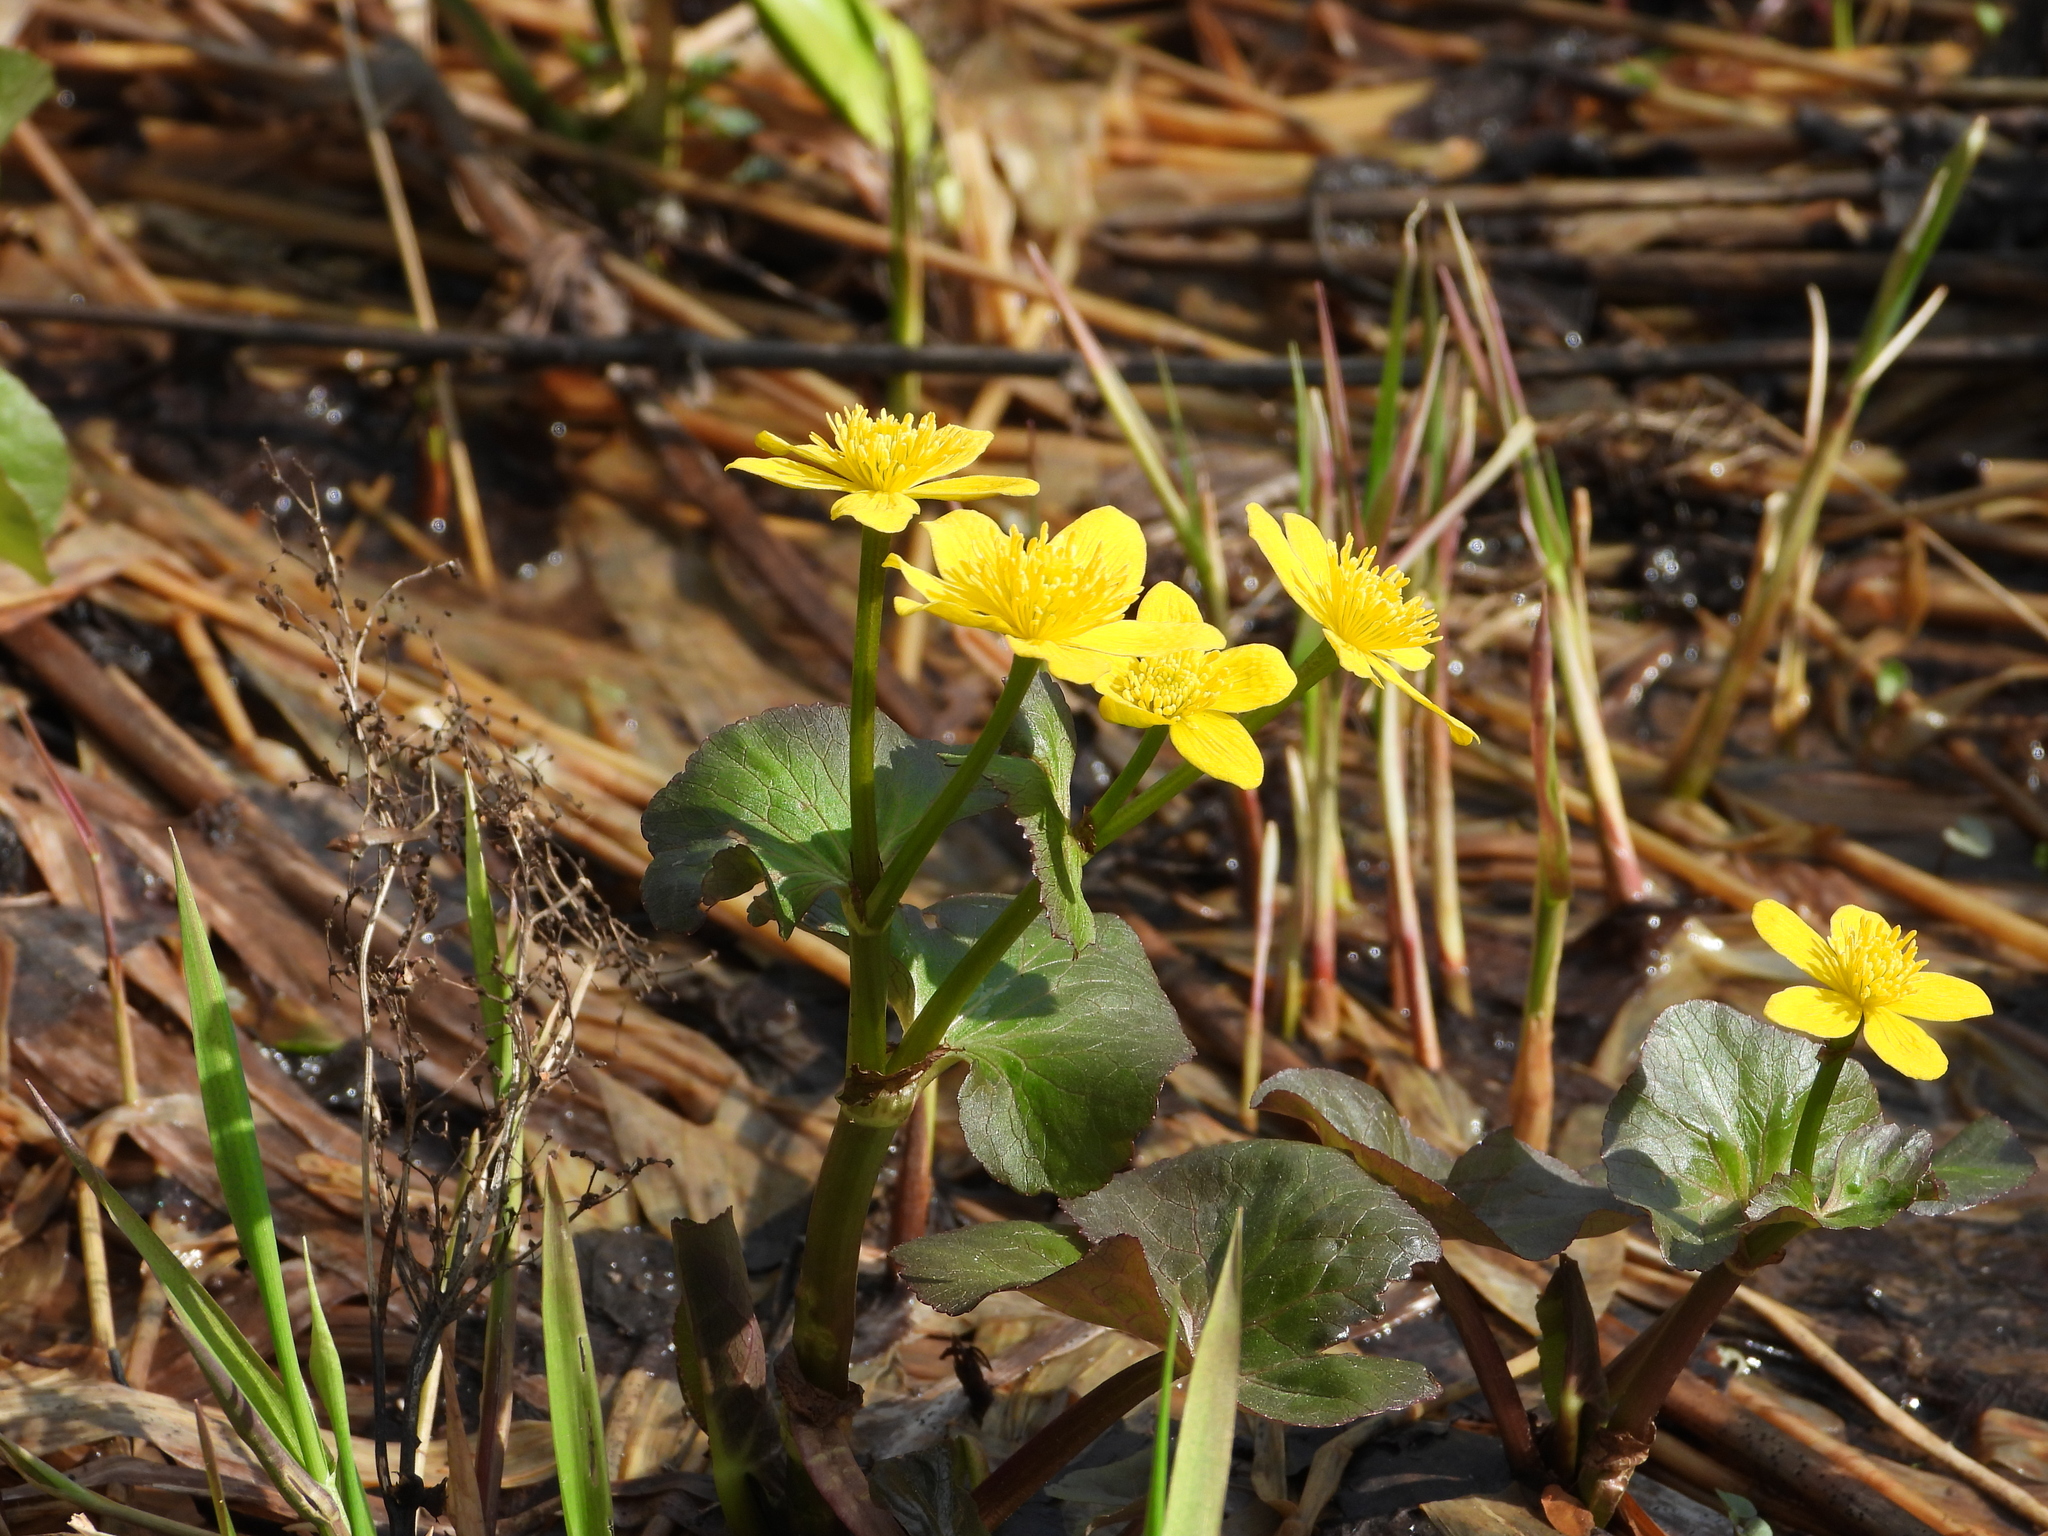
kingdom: Plantae
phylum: Tracheophyta
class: Magnoliopsida
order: Ranunculales
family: Ranunculaceae
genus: Caltha
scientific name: Caltha palustris
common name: Marsh marigold
